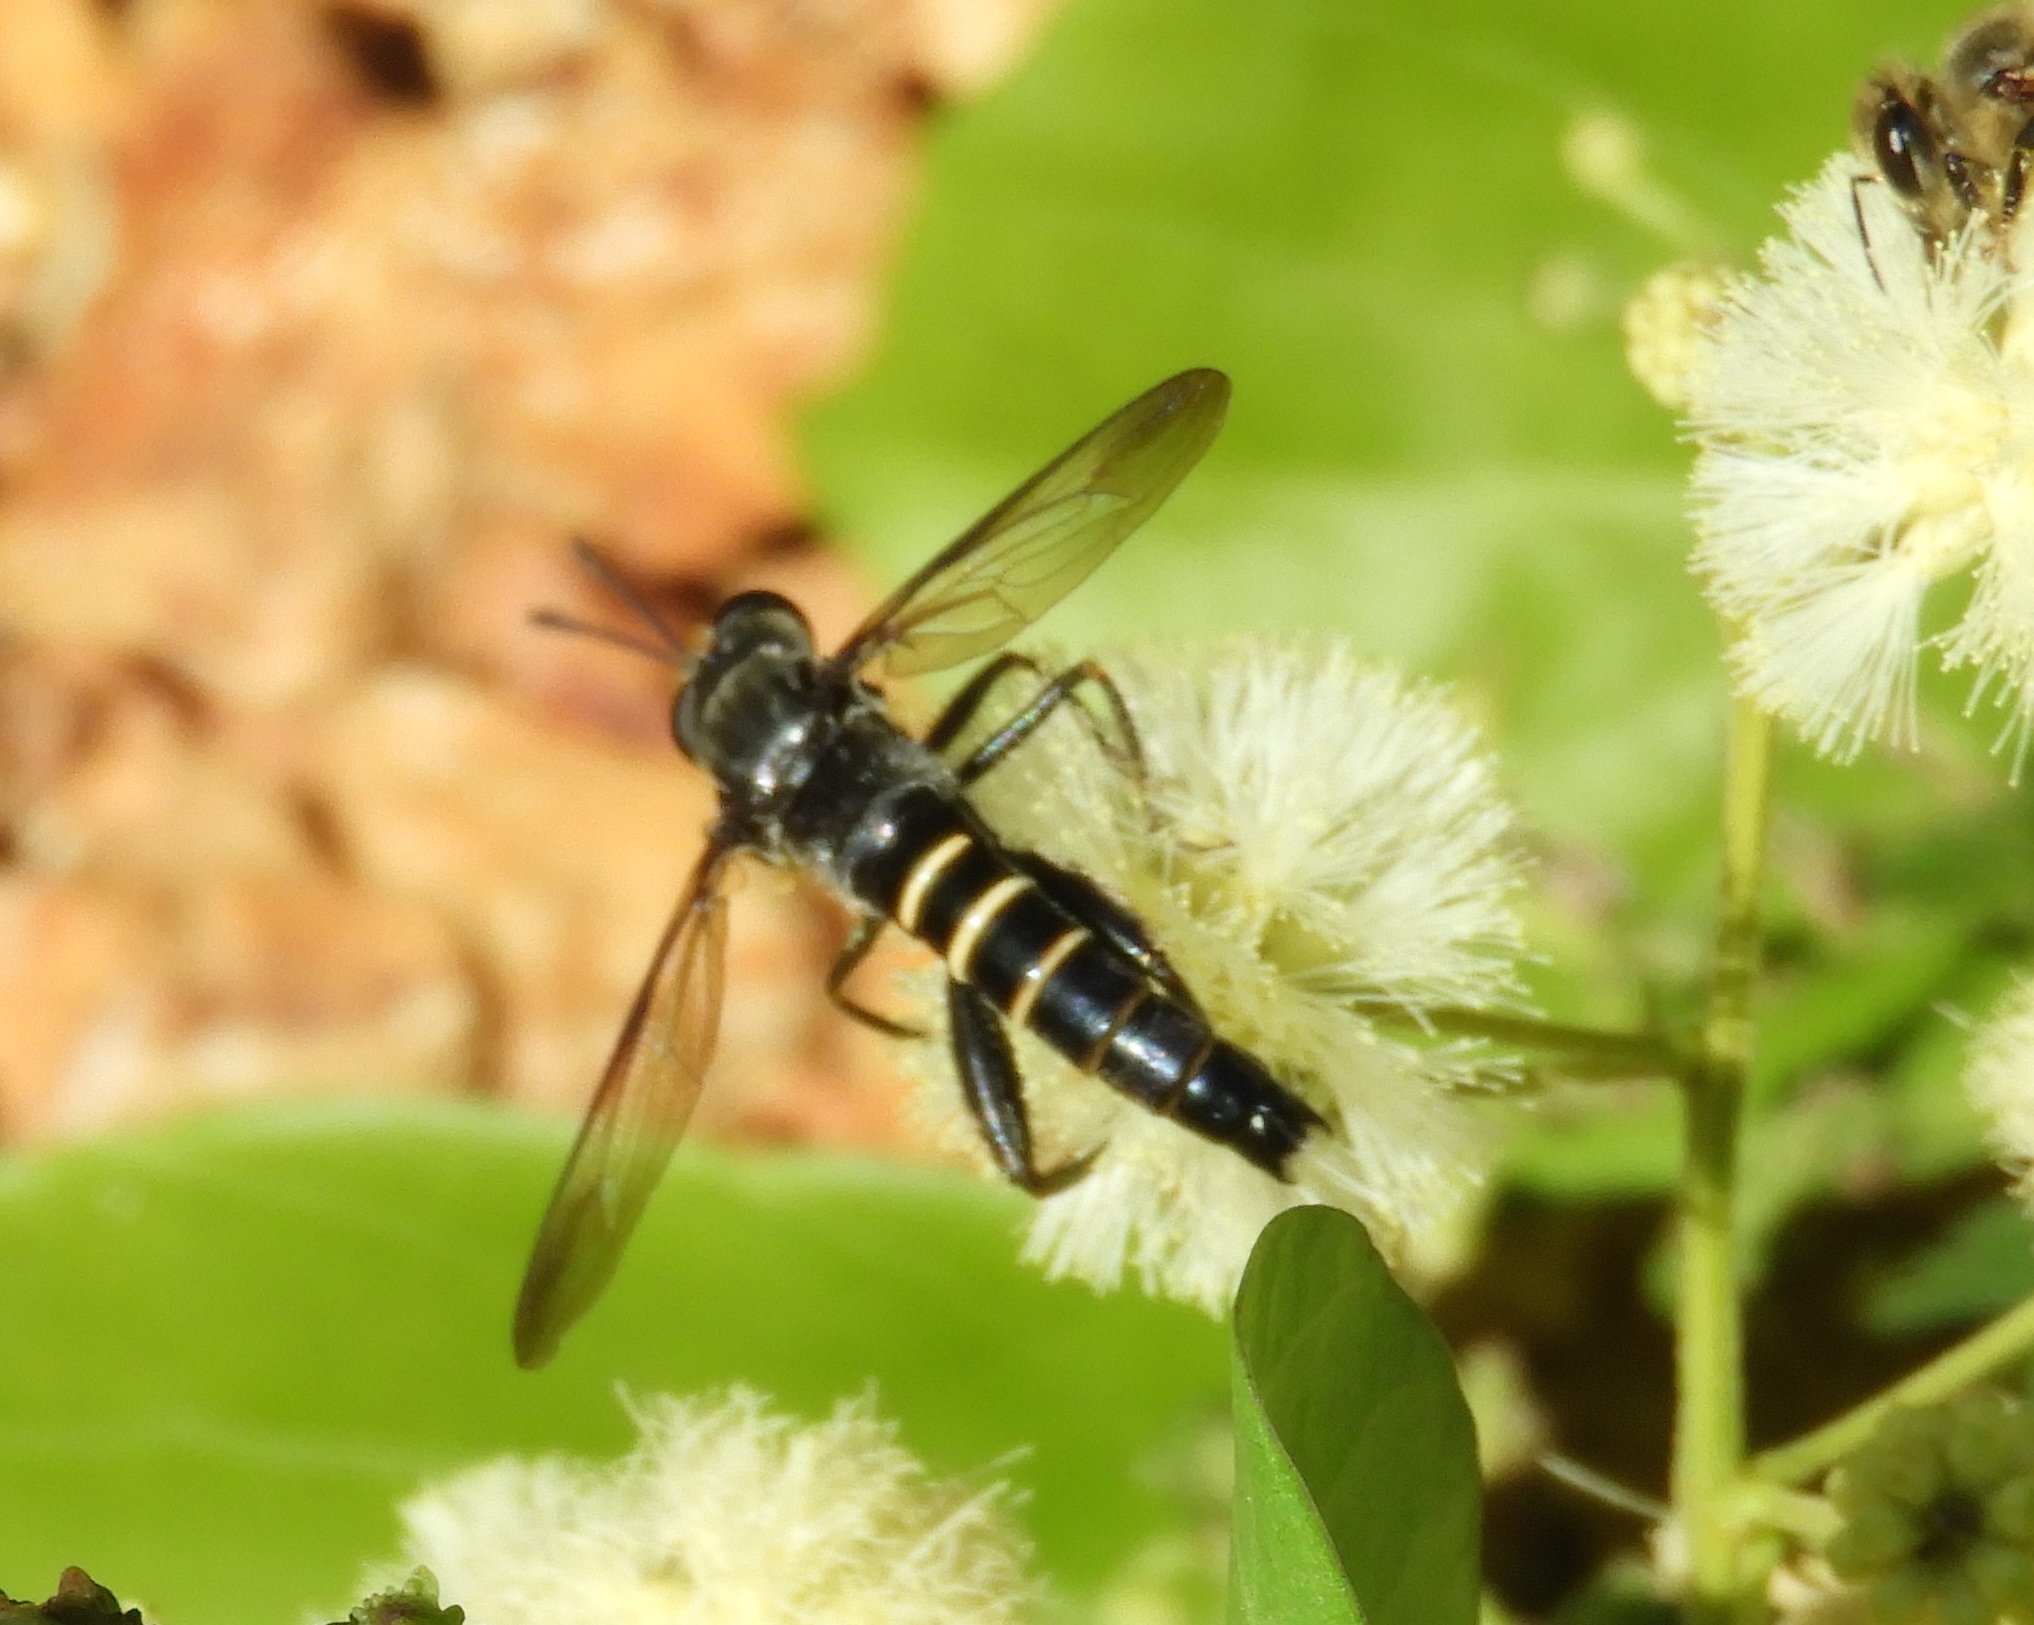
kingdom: Animalia
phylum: Arthropoda
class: Insecta
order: Diptera
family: Mydidae
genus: Mydas
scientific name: Mydas
